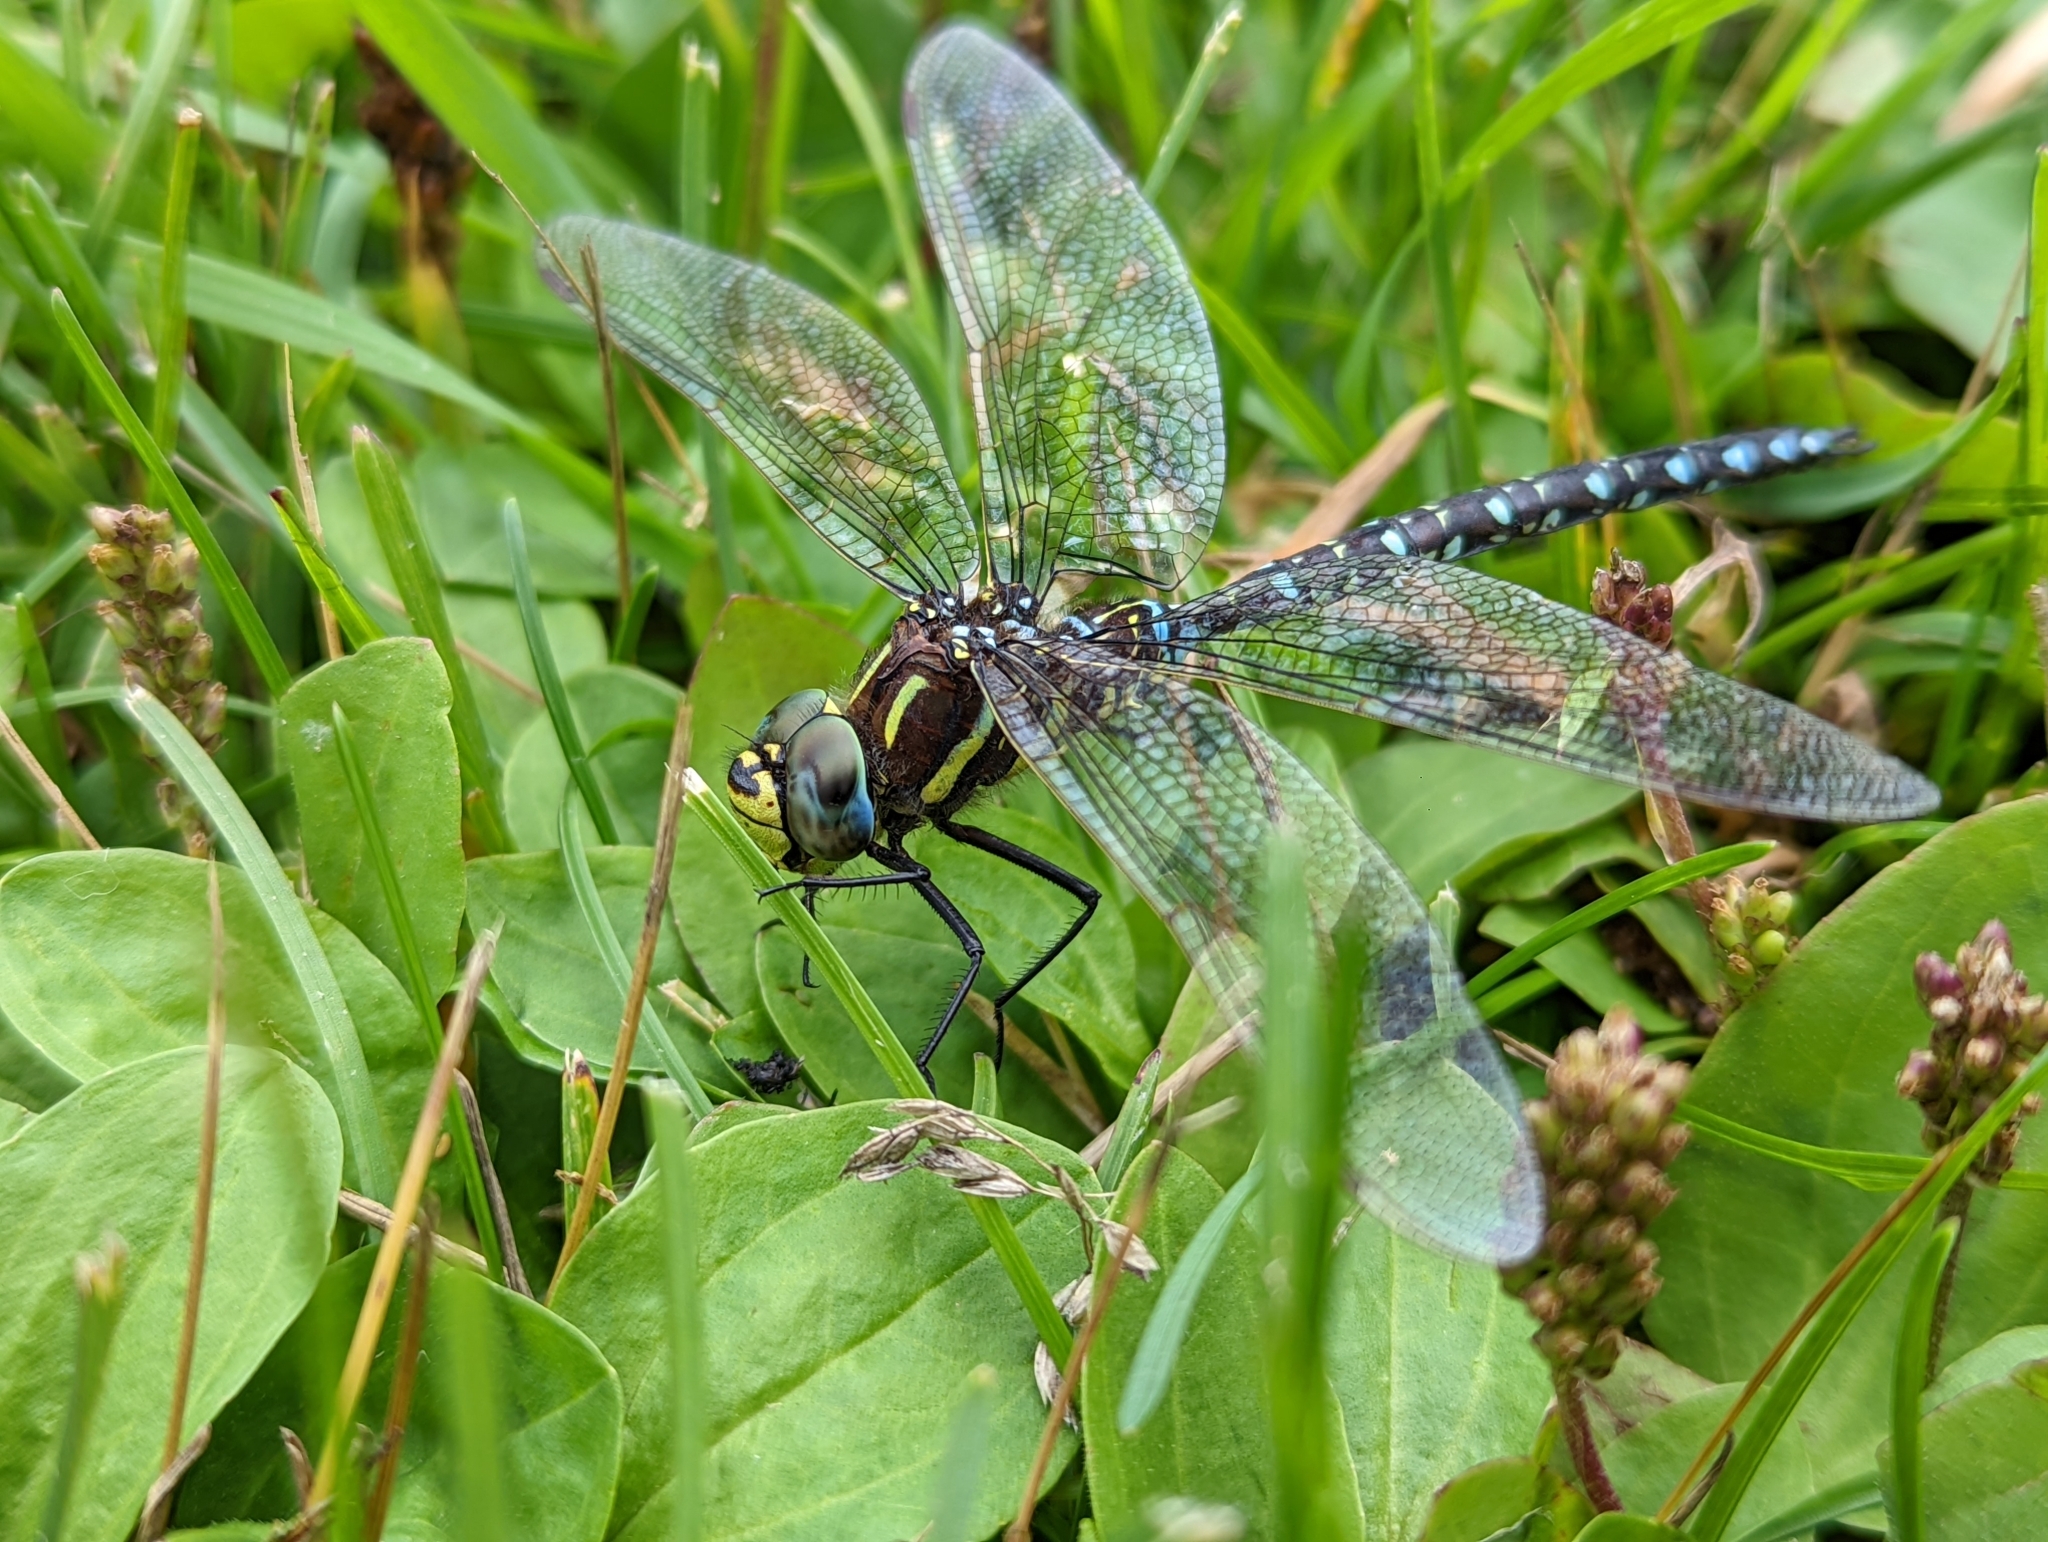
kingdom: Animalia
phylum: Arthropoda
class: Insecta
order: Odonata
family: Aeshnidae
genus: Aeshna
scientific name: Aeshna juncea
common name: Moorland hawker
